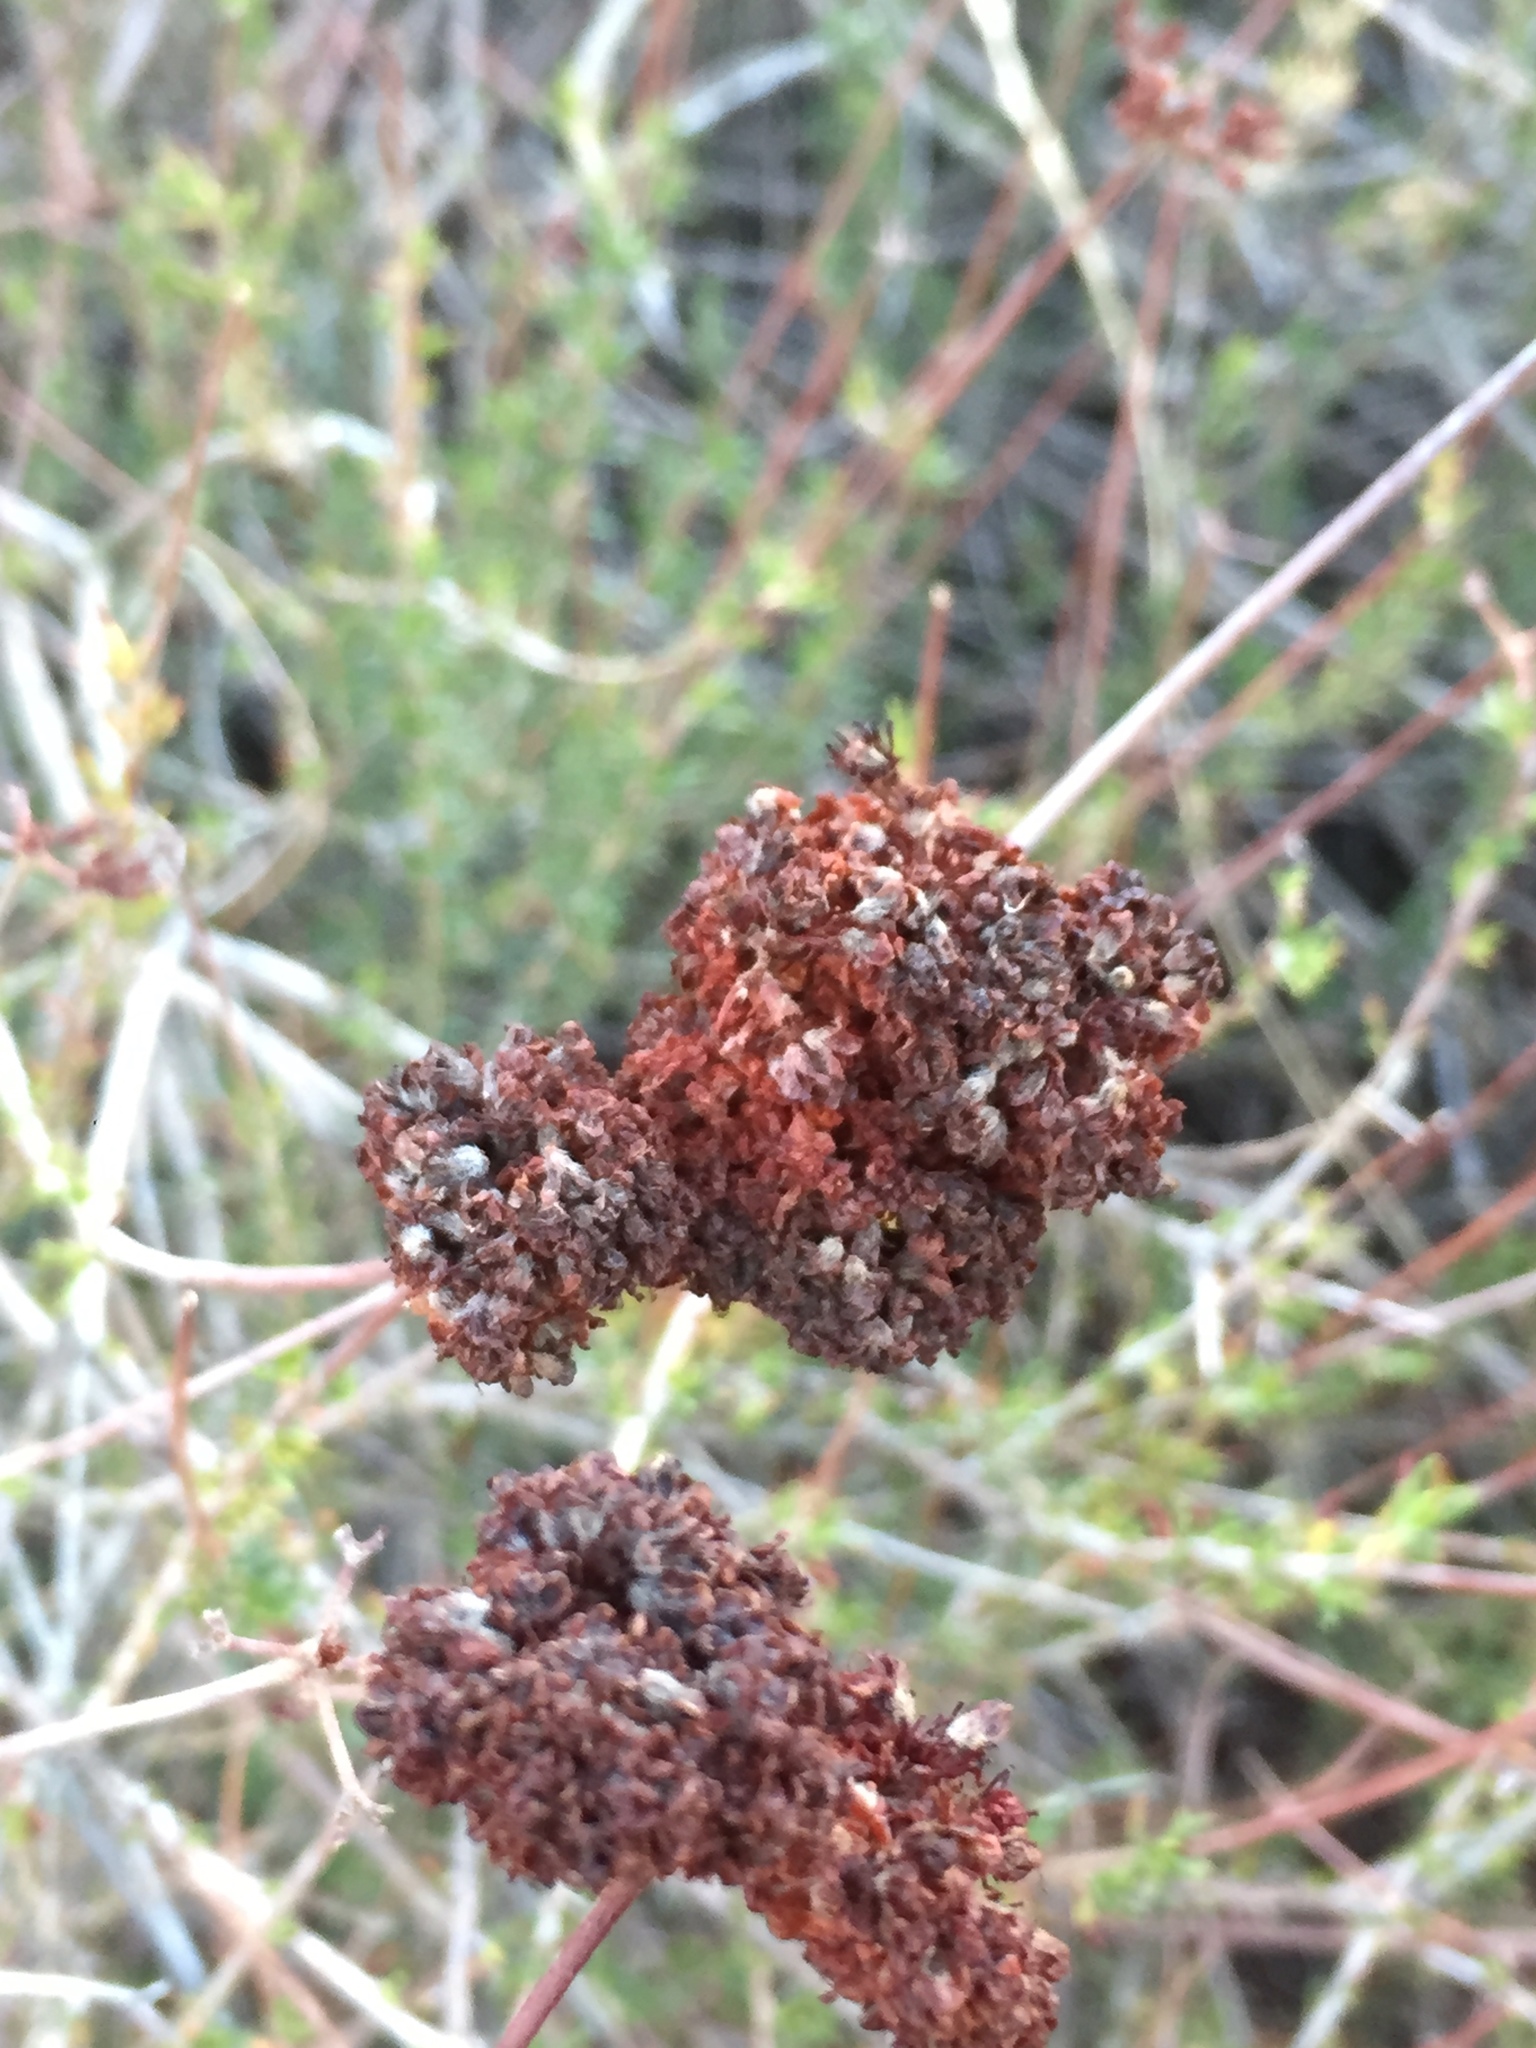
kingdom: Plantae
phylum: Tracheophyta
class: Magnoliopsida
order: Caryophyllales
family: Polygonaceae
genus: Eriogonum
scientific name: Eriogonum fasciculatum
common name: California wild buckwheat
